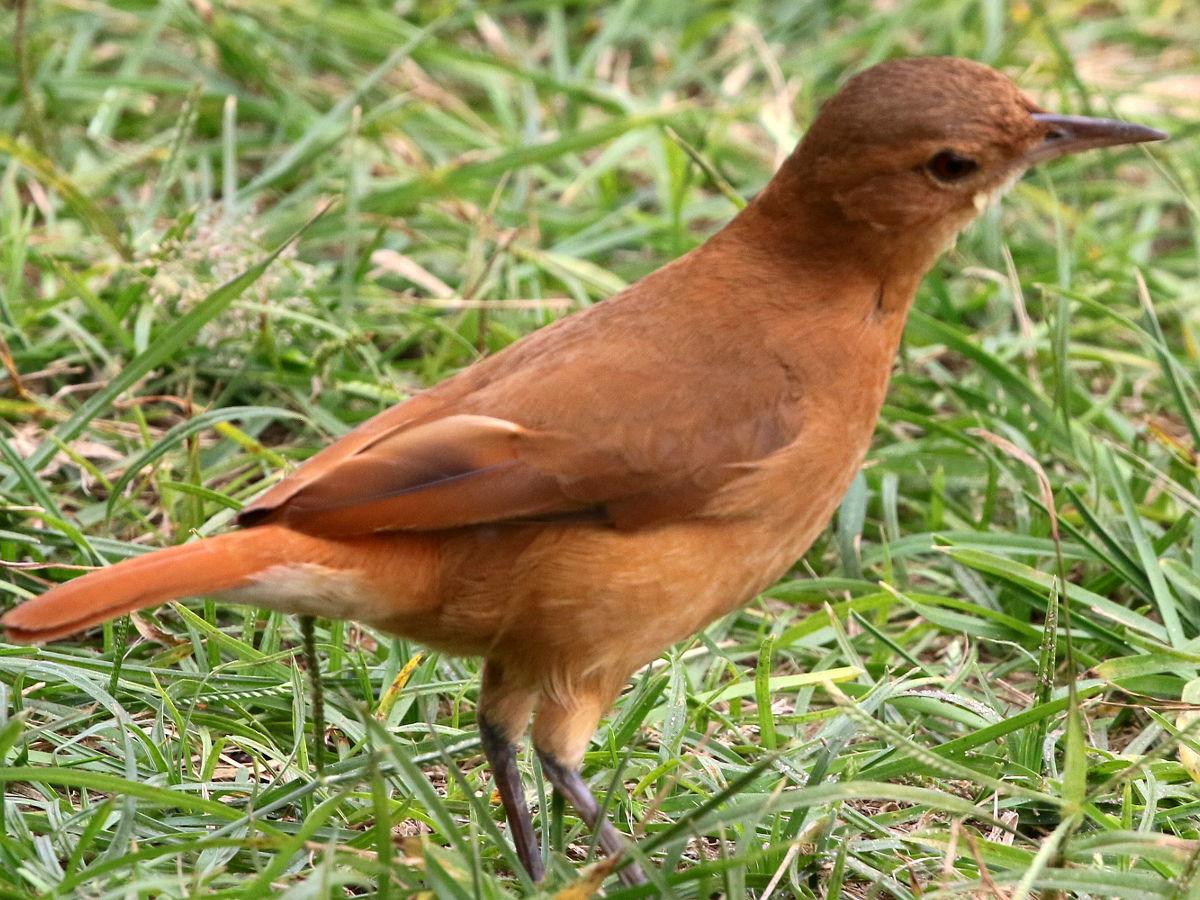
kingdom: Animalia
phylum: Chordata
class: Aves
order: Passeriformes
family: Furnariidae
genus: Furnarius
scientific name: Furnarius rufus
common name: Rufous hornero
